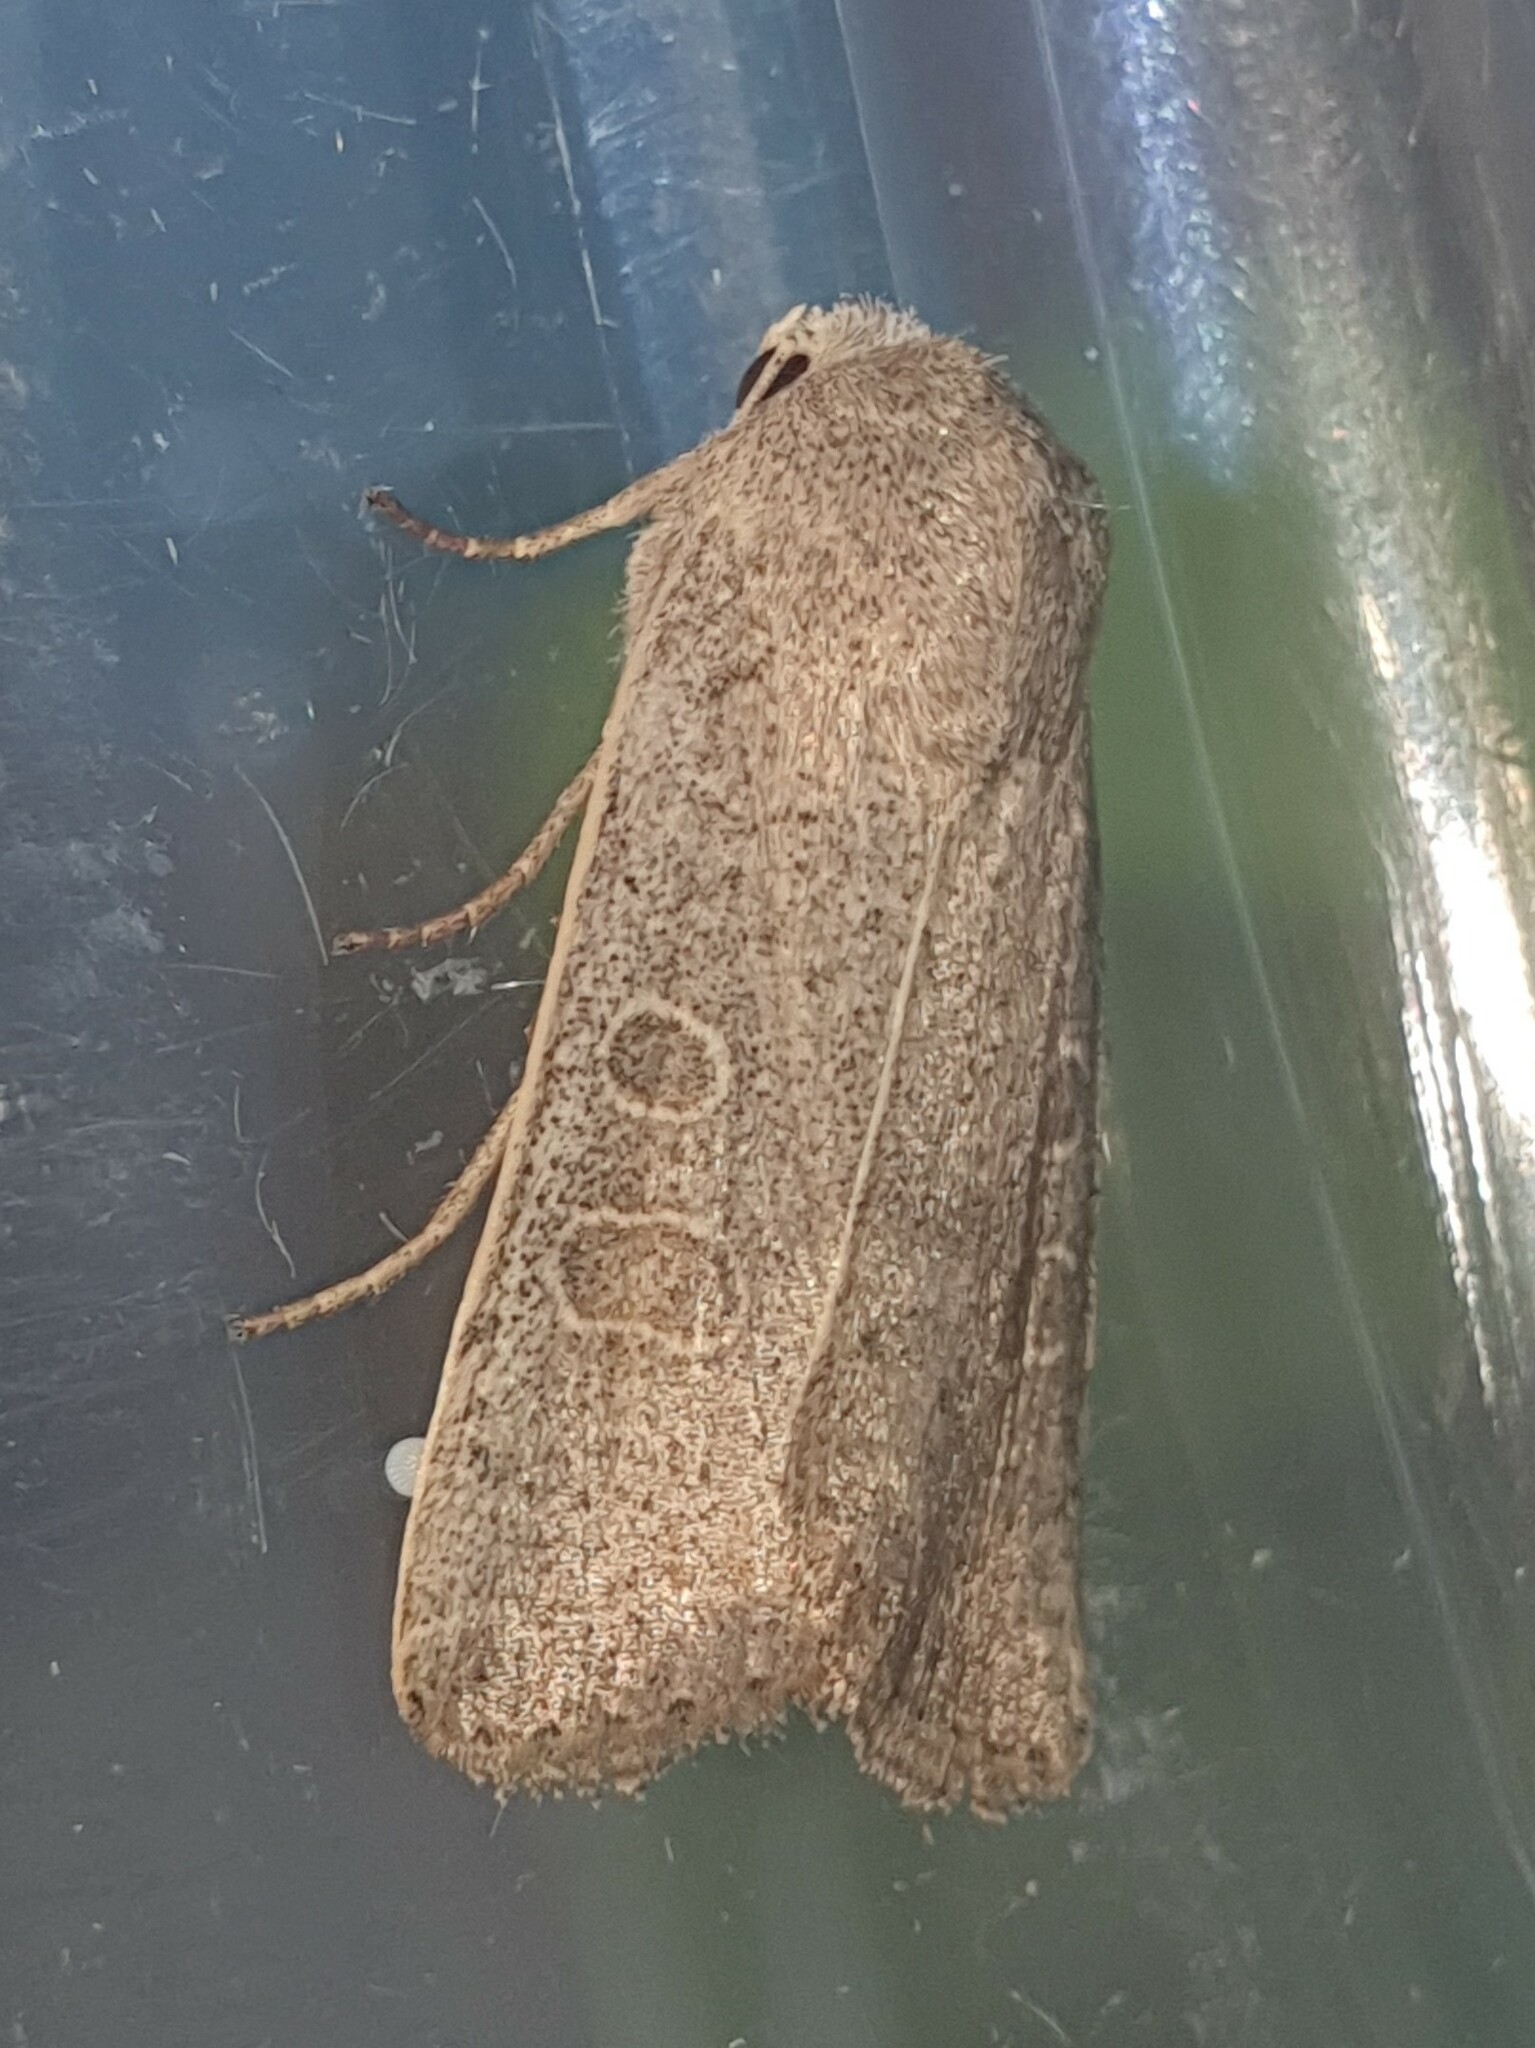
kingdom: Animalia
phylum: Arthropoda
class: Insecta
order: Lepidoptera
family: Noctuidae
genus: Hoplodrina
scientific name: Hoplodrina ambigua
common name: Vine's rustic
